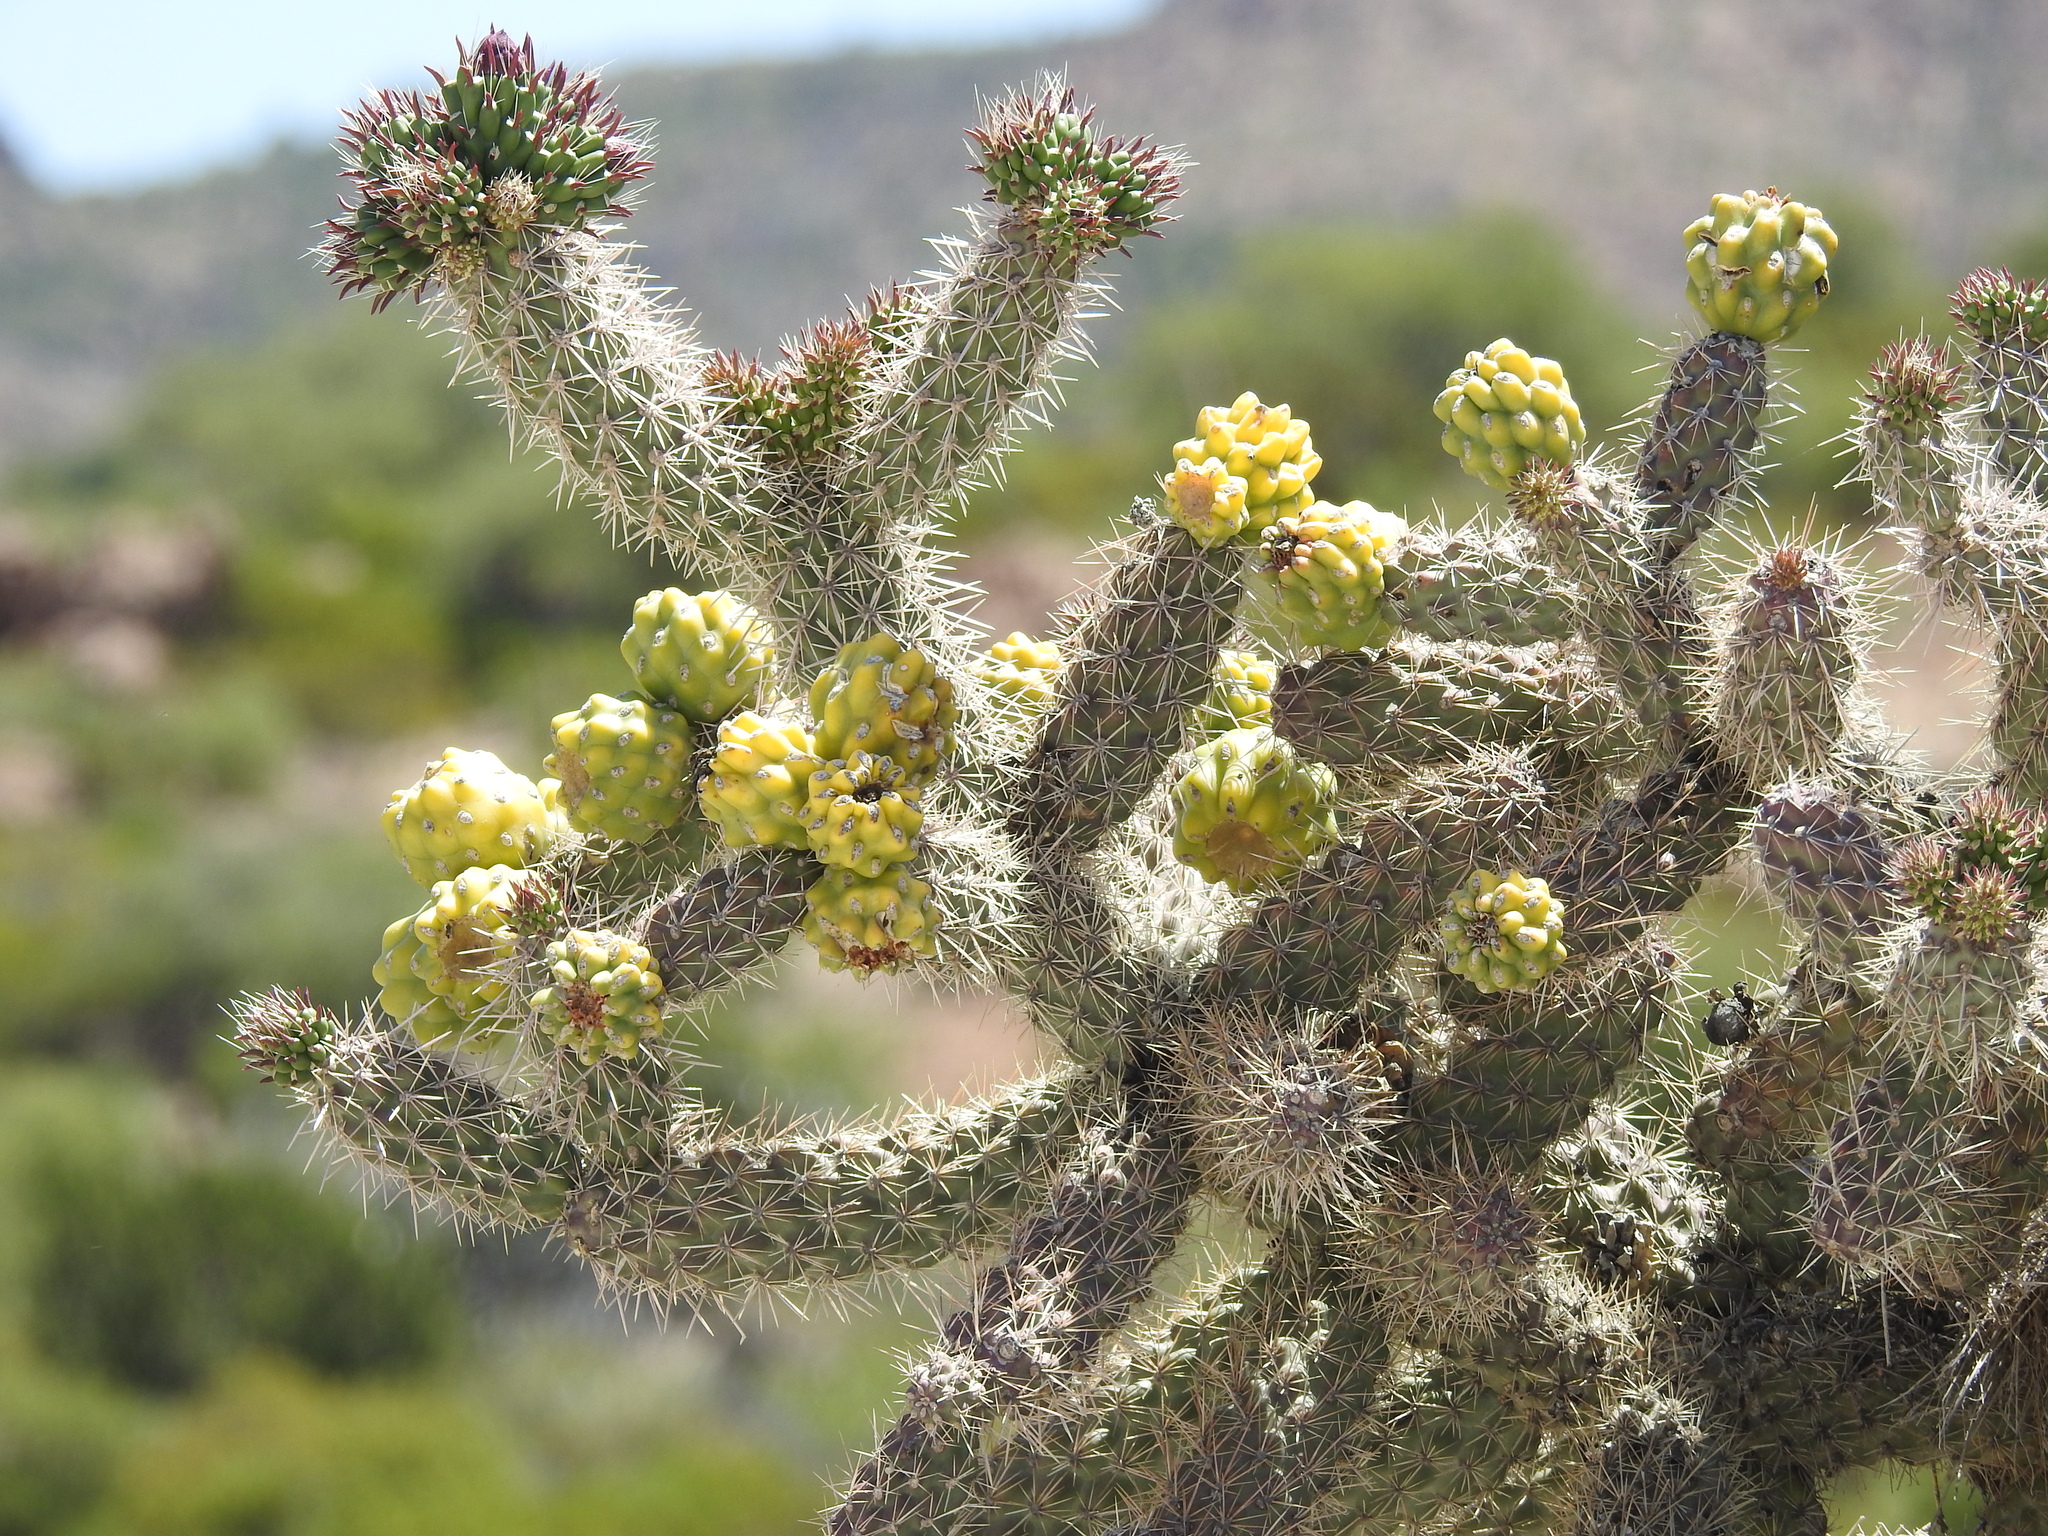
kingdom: Plantae
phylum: Tracheophyta
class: Magnoliopsida
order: Caryophyllales
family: Cactaceae
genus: Cylindropuntia
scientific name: Cylindropuntia imbricata
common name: Candelabrum cactus
